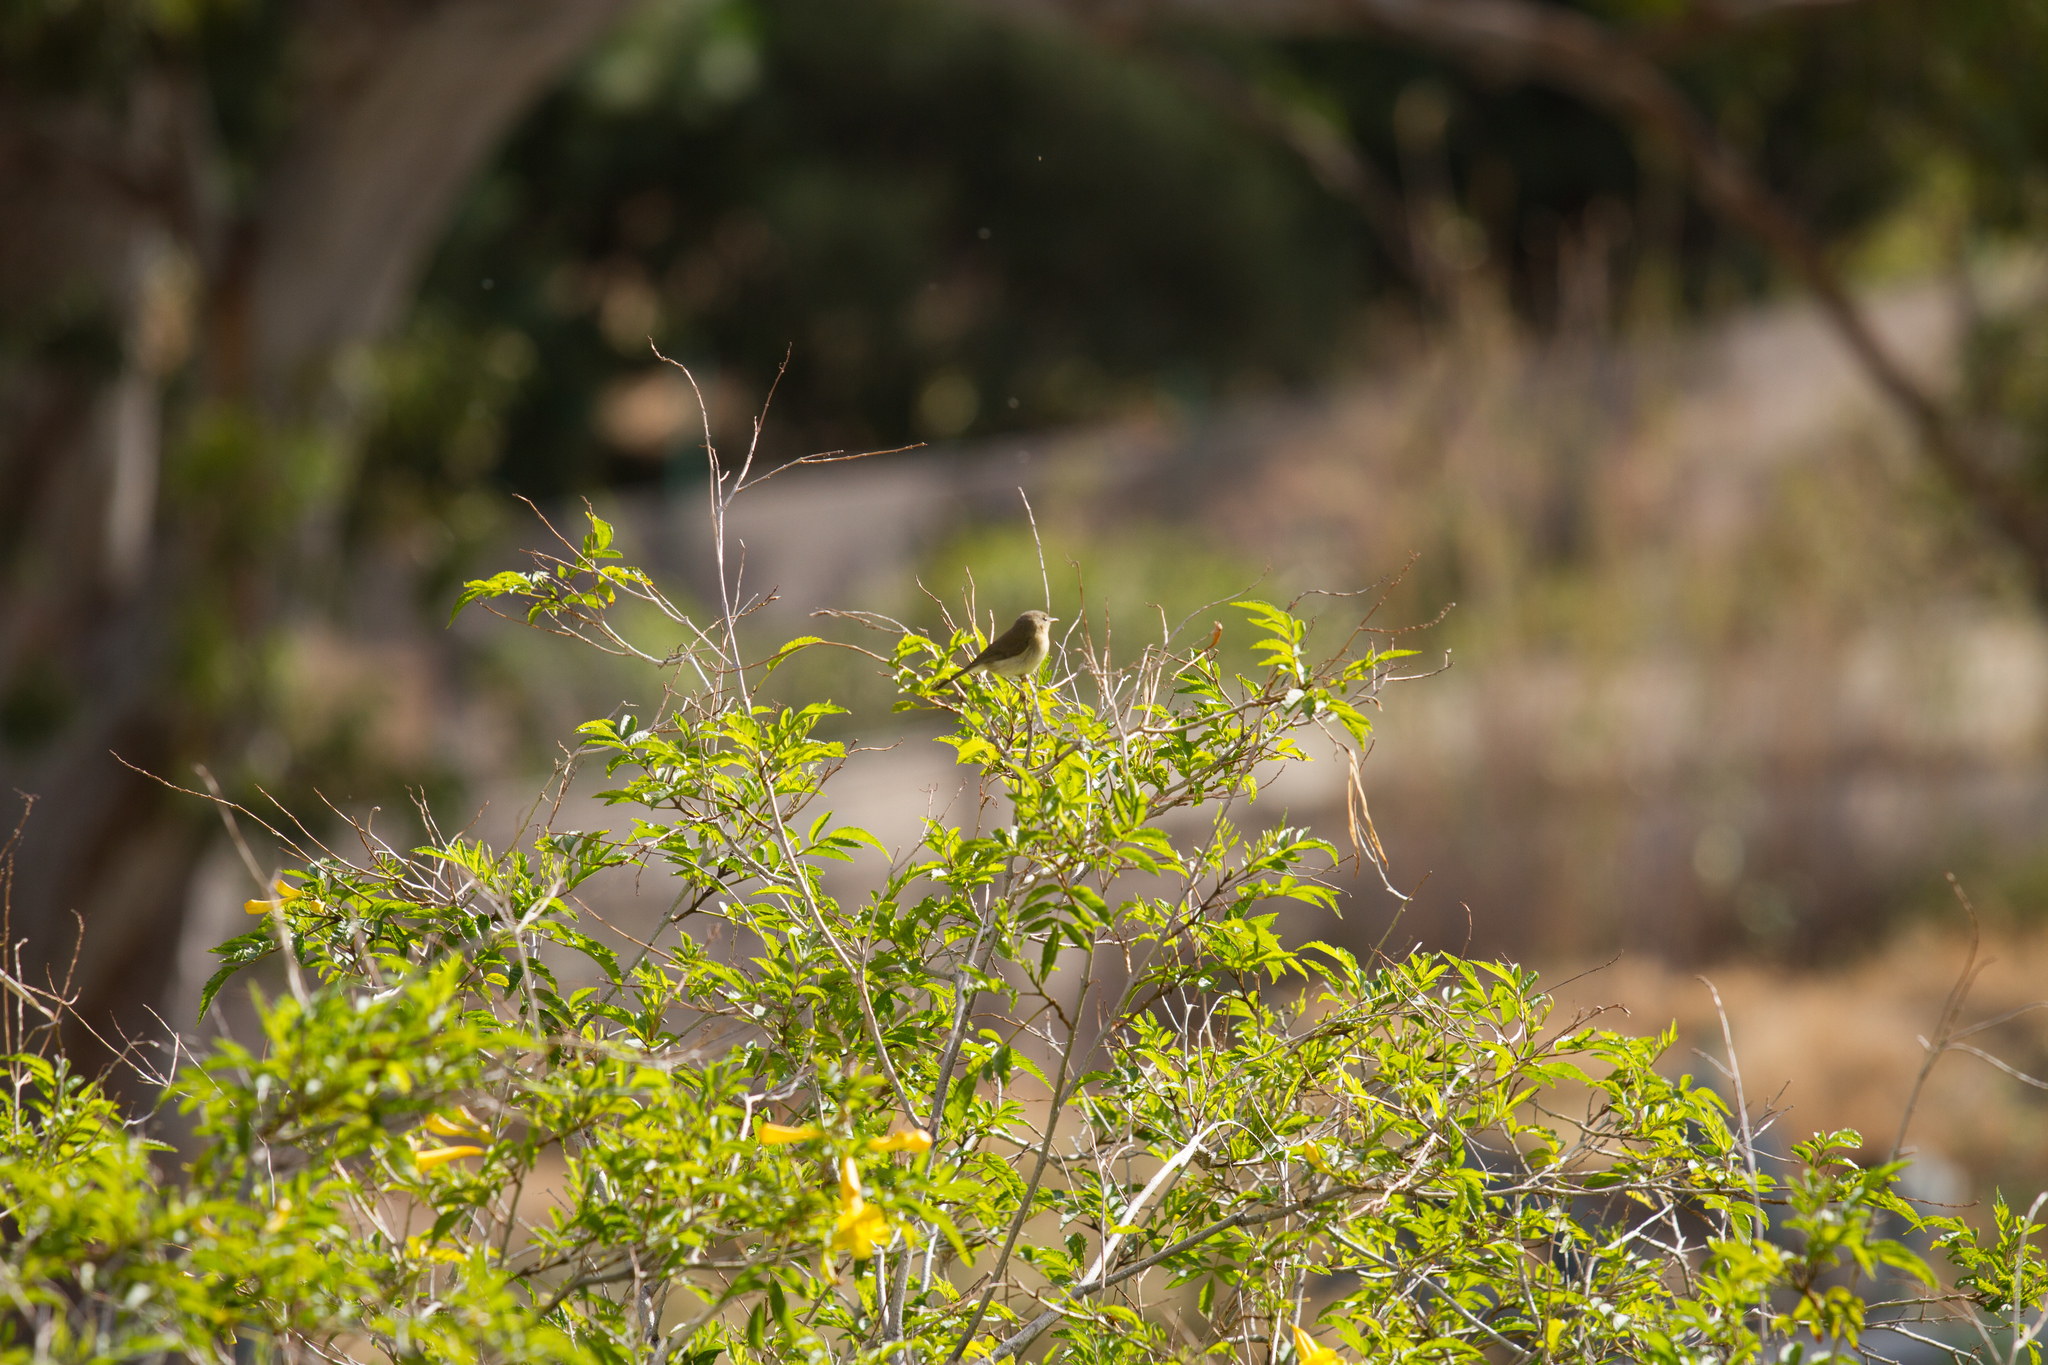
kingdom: Animalia
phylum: Chordata
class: Aves
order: Passeriformes
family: Phylloscopidae
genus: Phylloscopus
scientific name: Phylloscopus canariensis
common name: Canary islands chiffchaff
